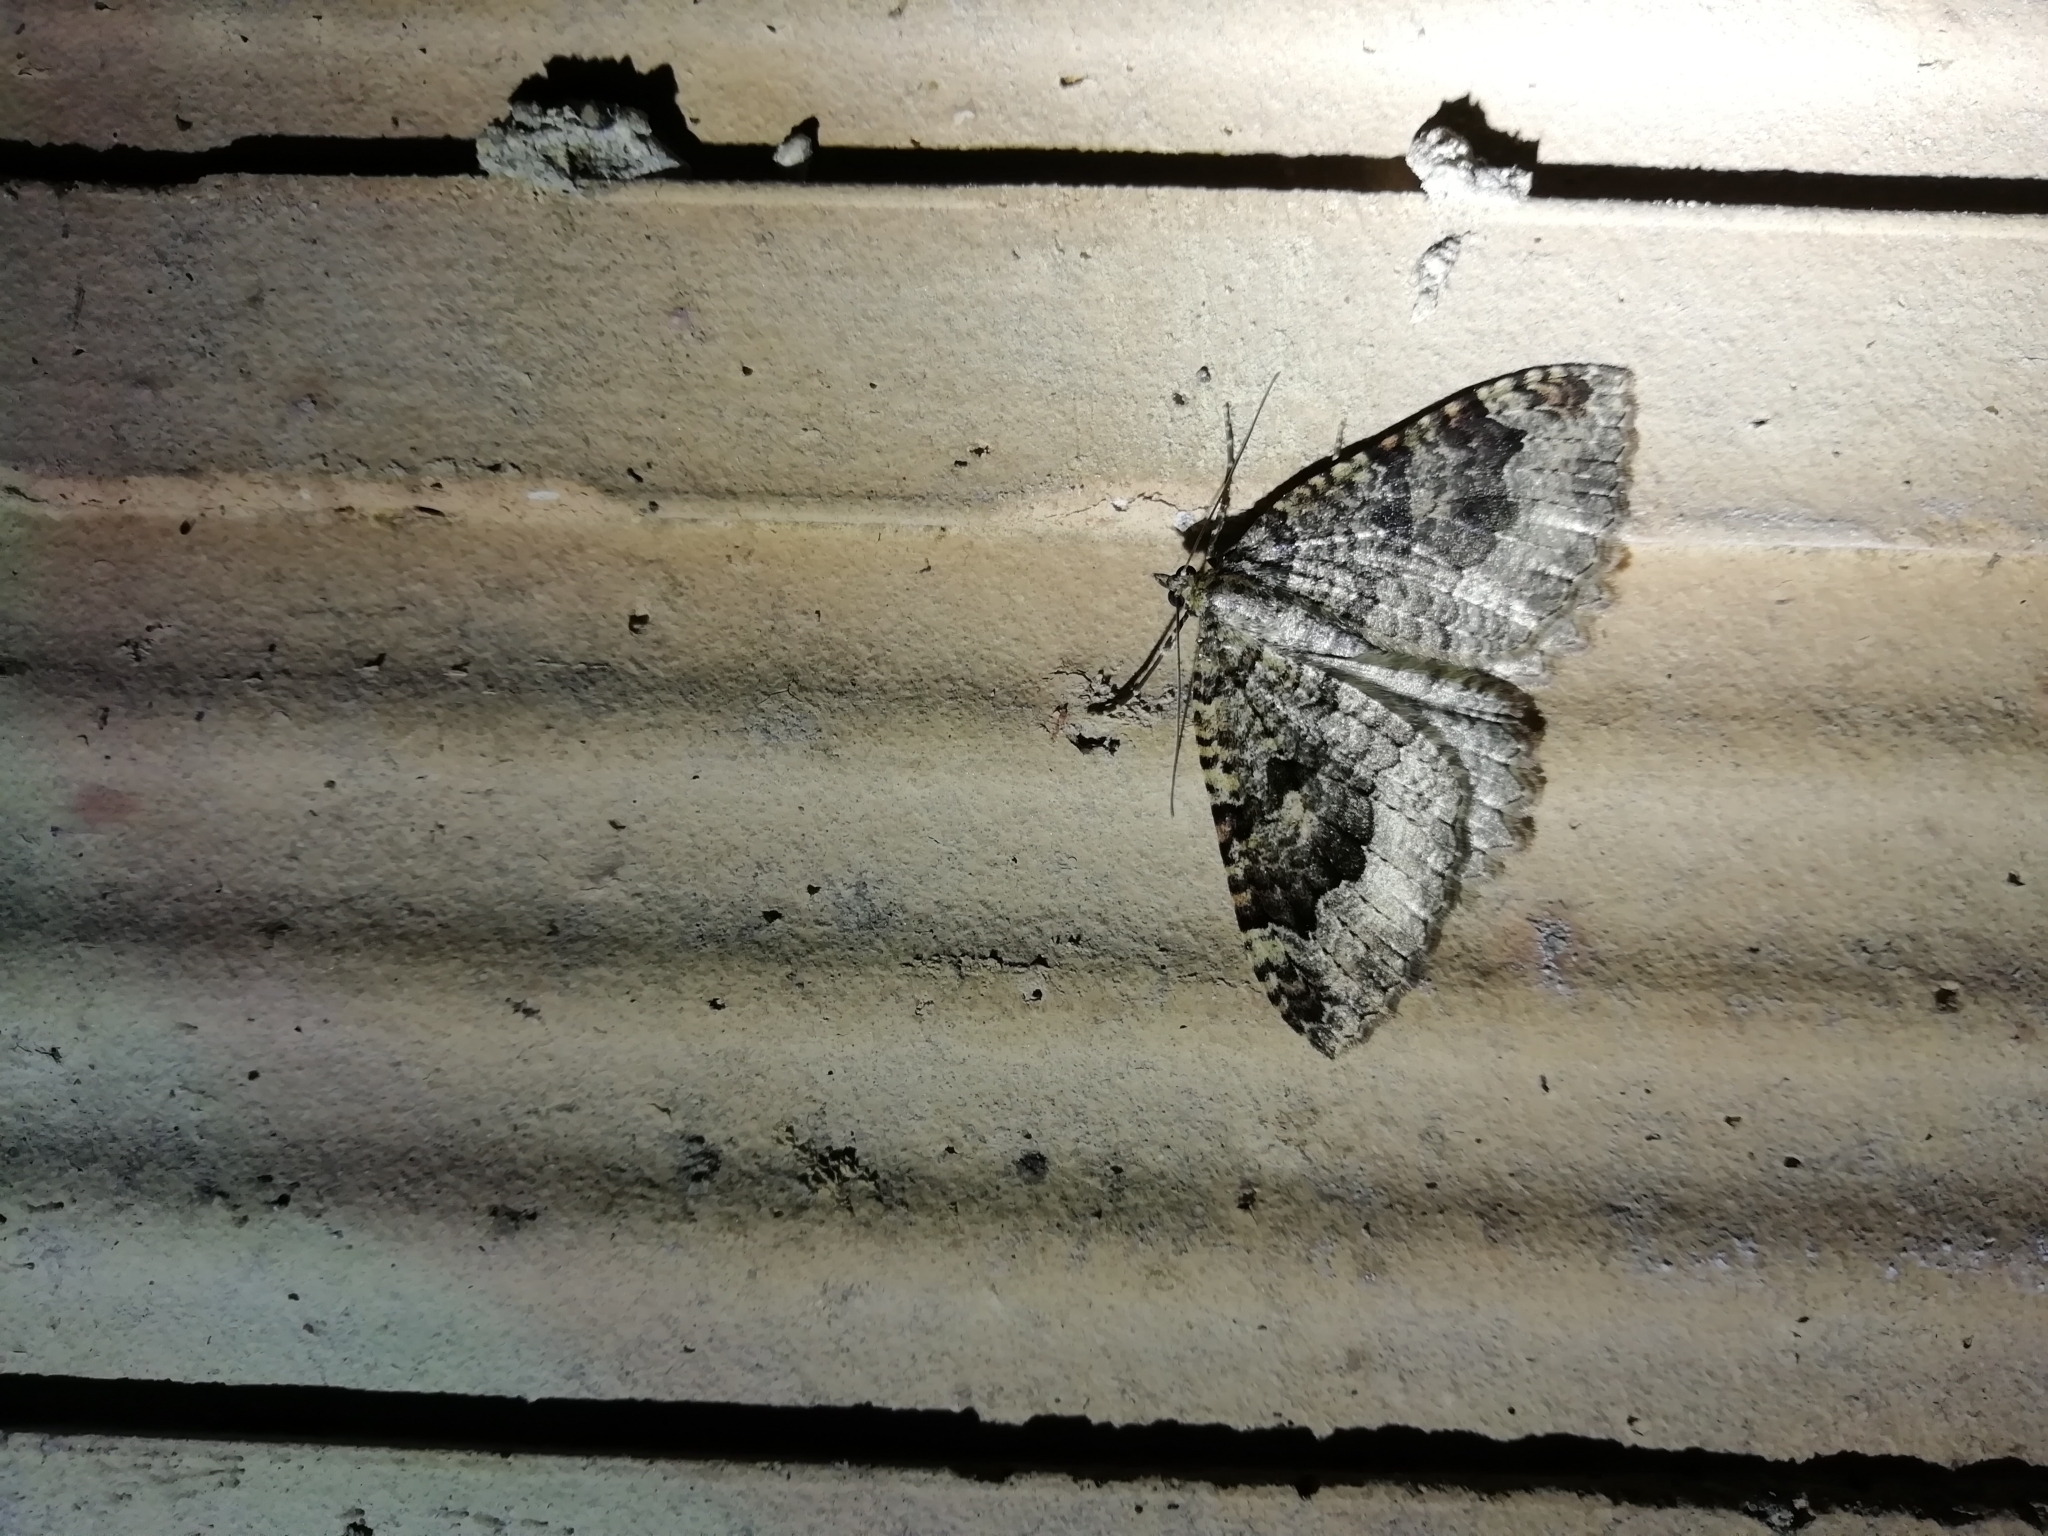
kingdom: Animalia
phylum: Arthropoda
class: Insecta
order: Lepidoptera
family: Geometridae
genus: Triphosa
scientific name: Triphosa dubitata
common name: Tissue
